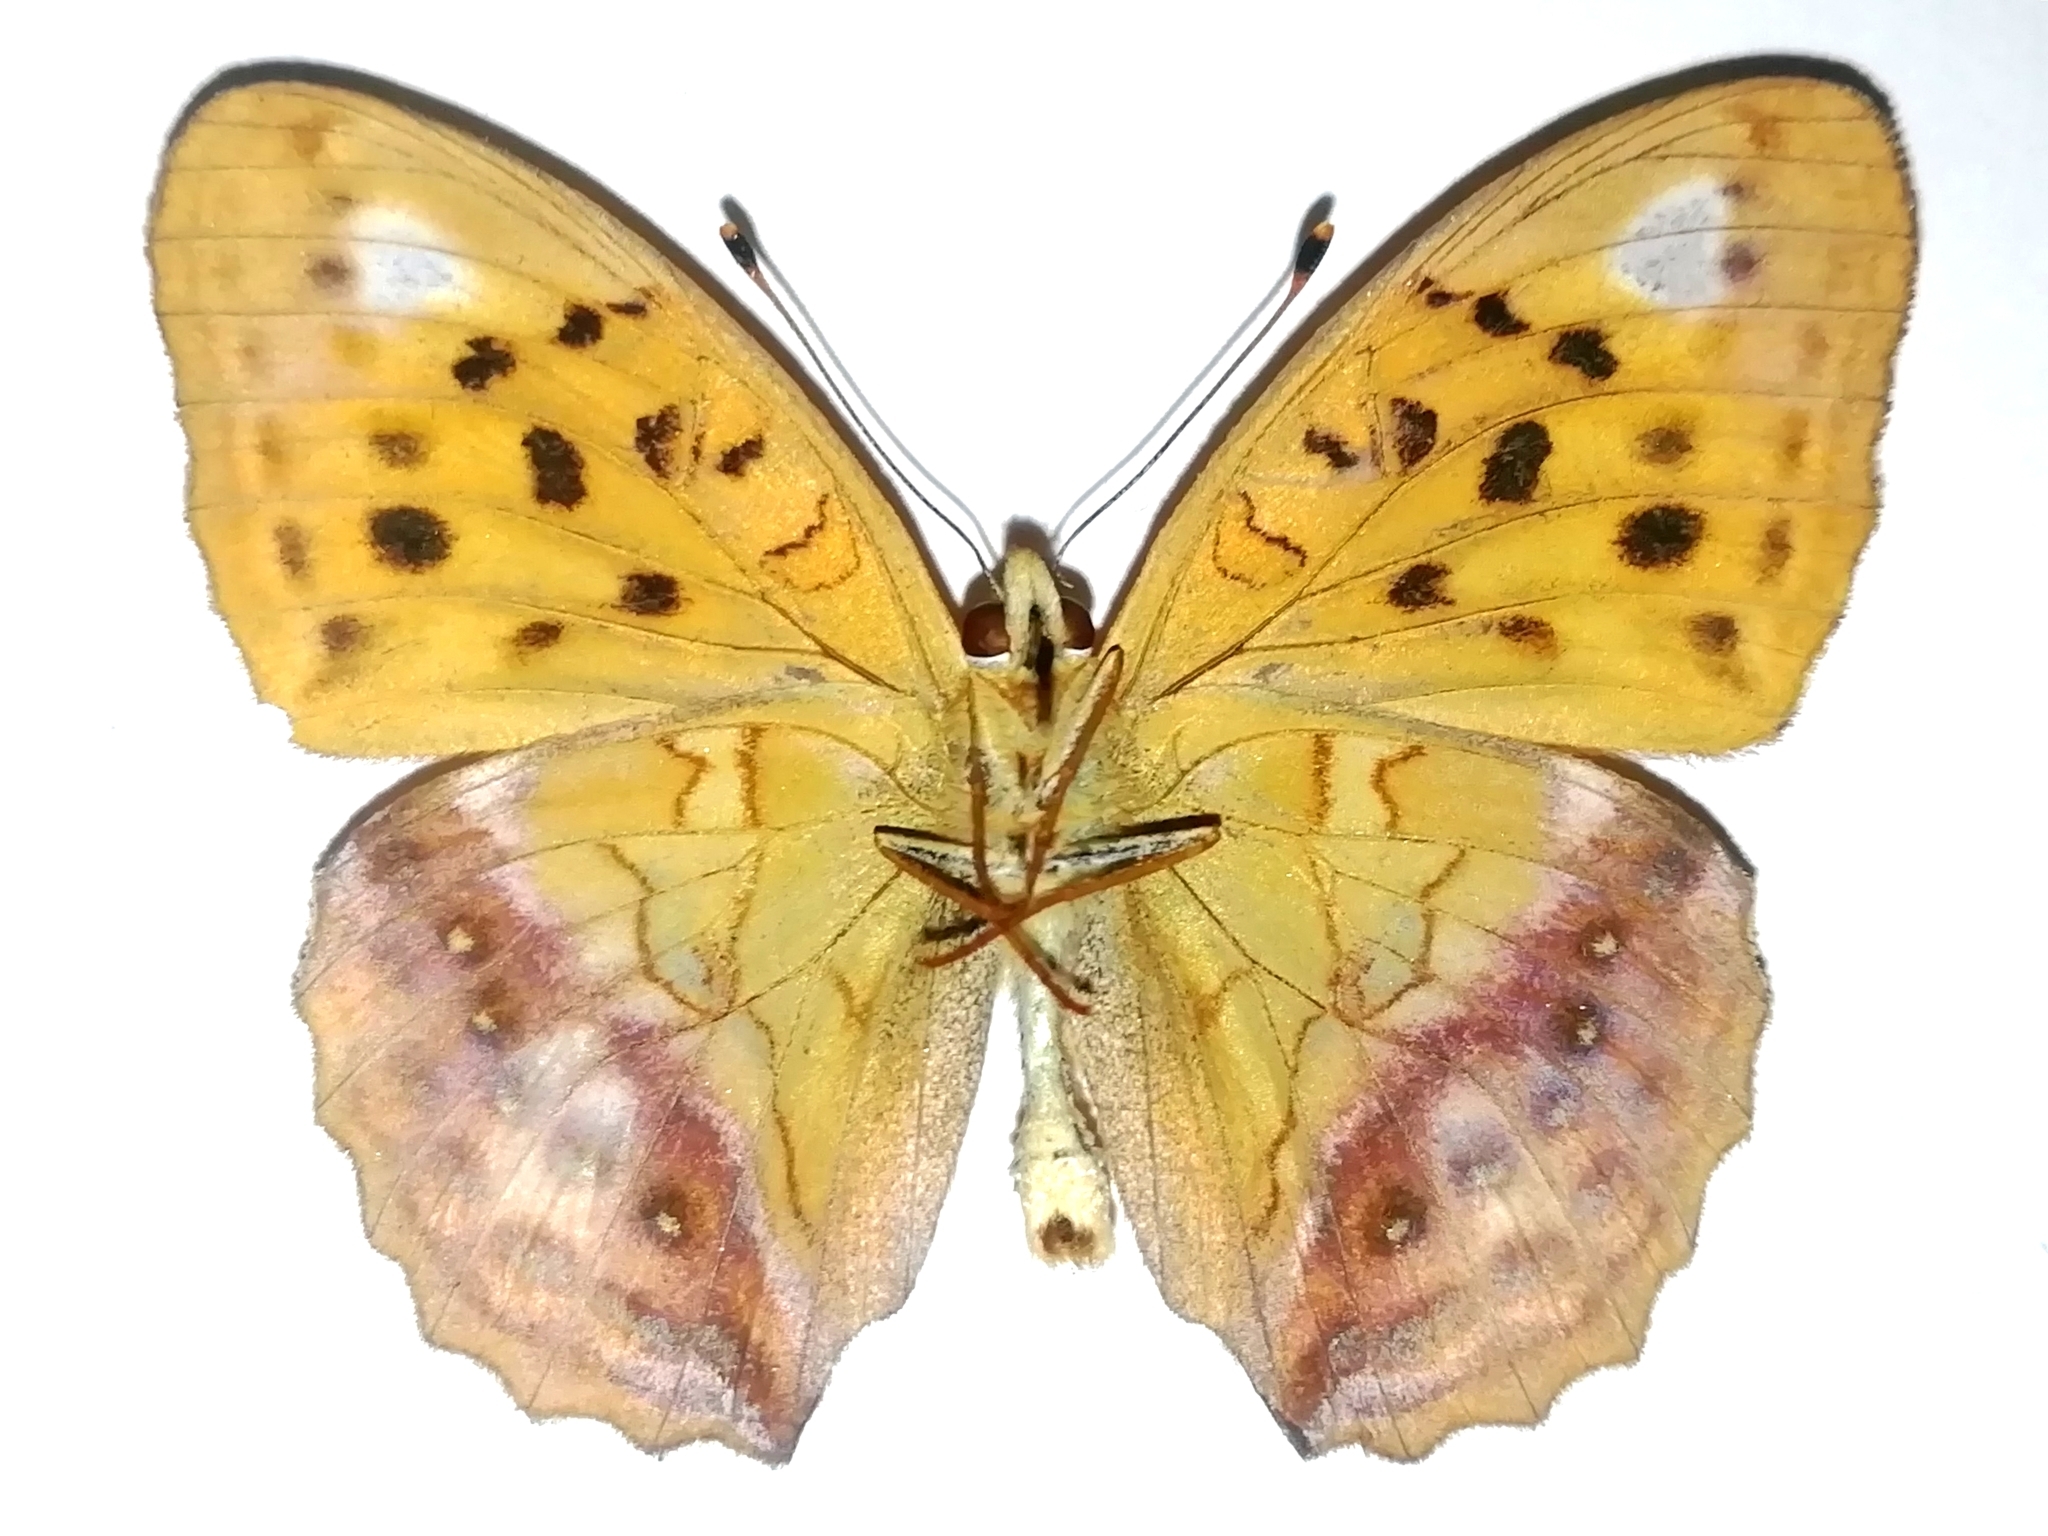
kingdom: Animalia
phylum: Arthropoda
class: Insecta
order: Lepidoptera
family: Nymphalidae
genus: Damora
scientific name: Damora sagana
